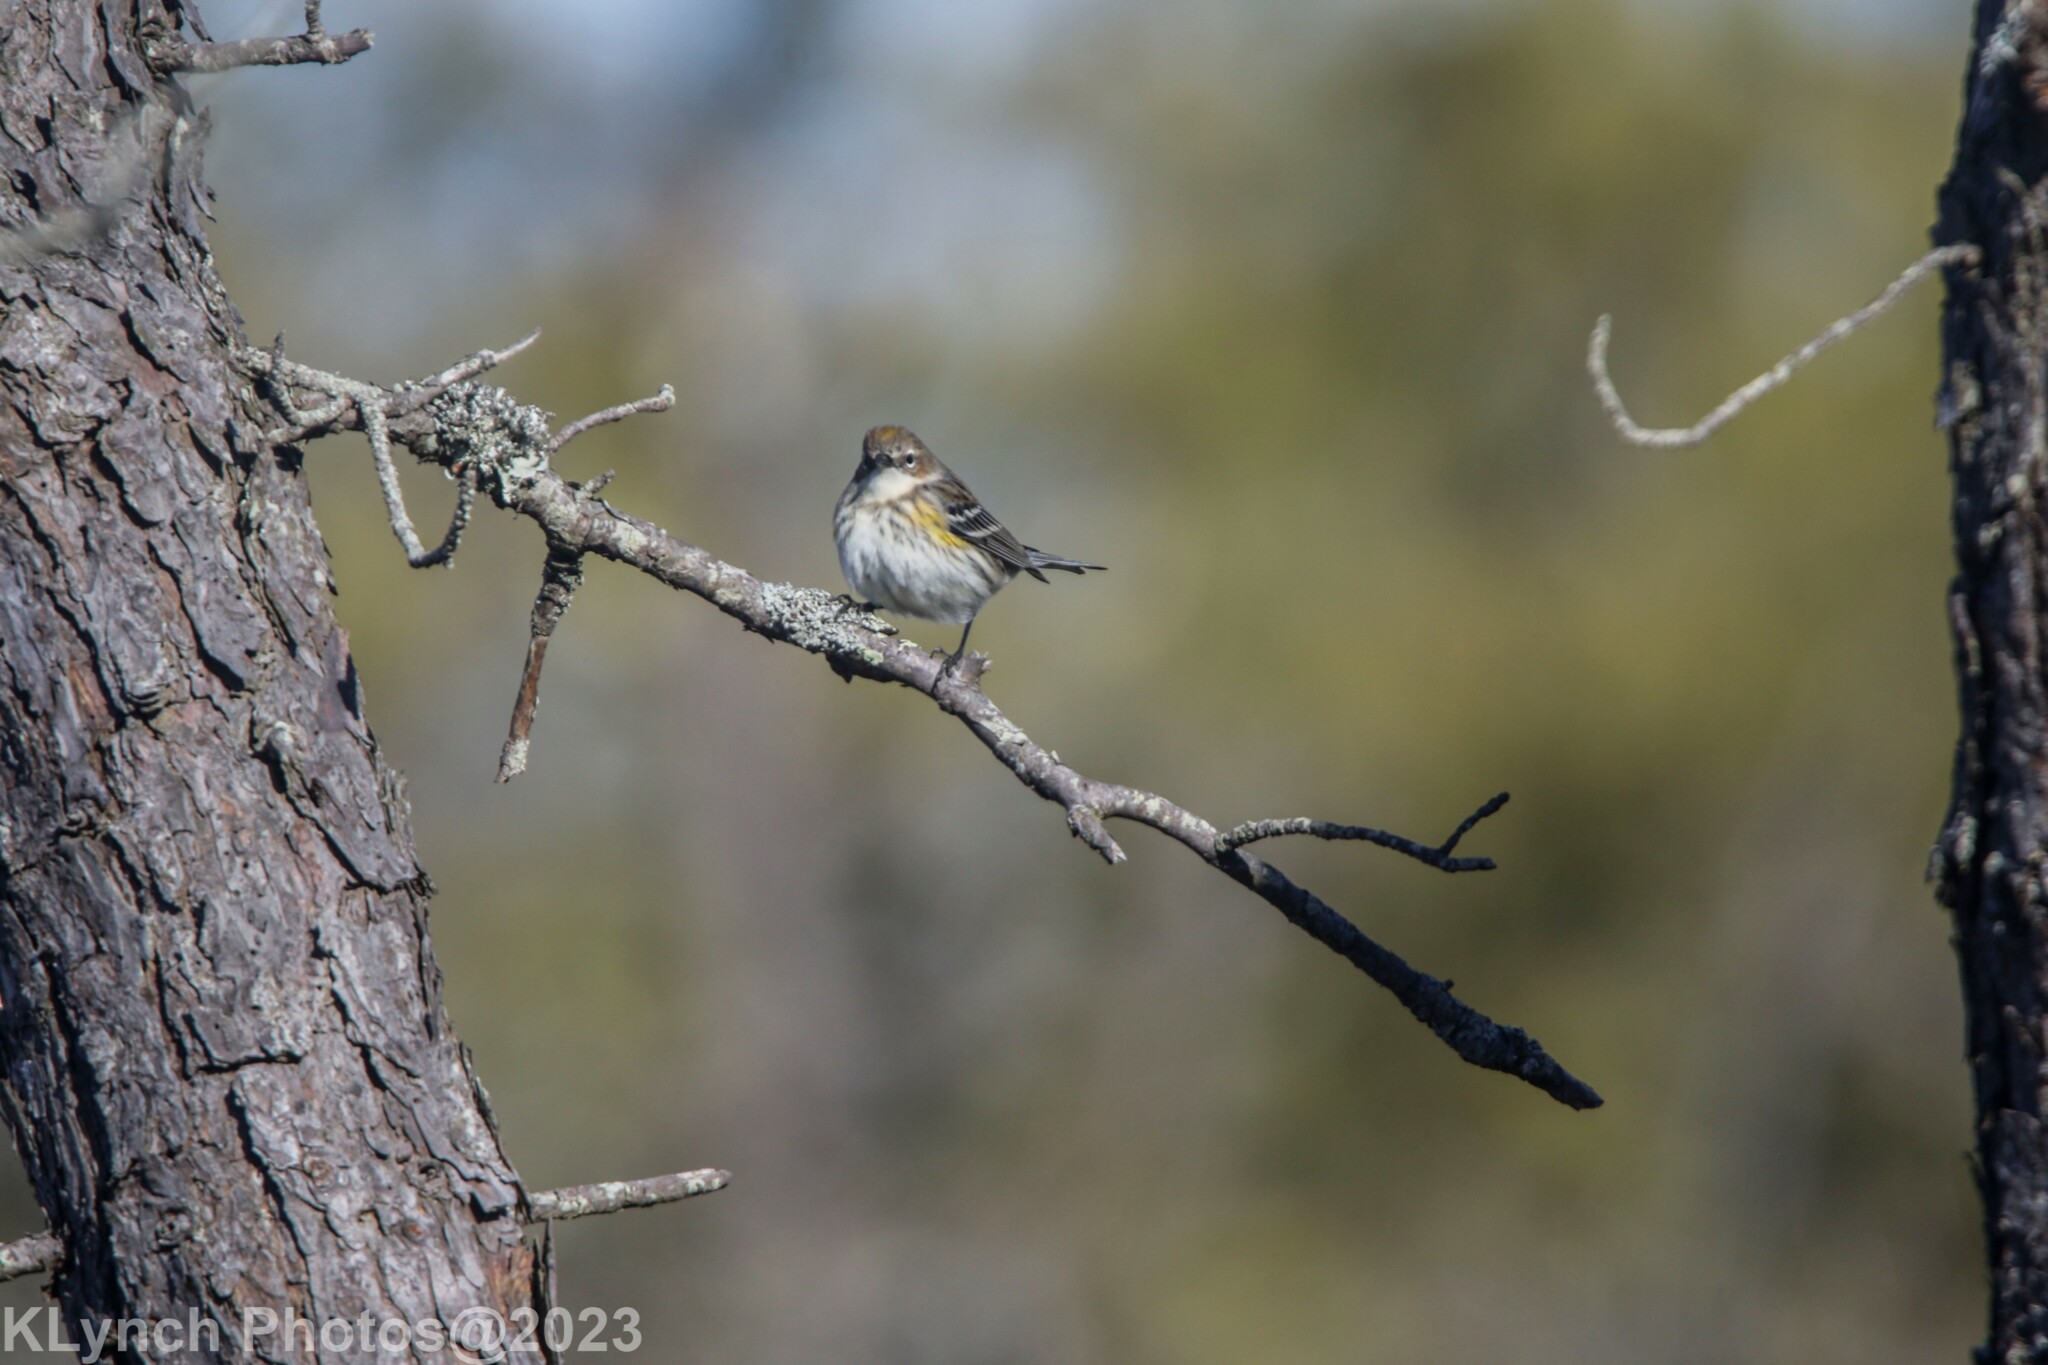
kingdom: Animalia
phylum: Chordata
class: Aves
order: Passeriformes
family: Parulidae
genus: Setophaga
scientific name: Setophaga coronata
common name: Myrtle warbler
